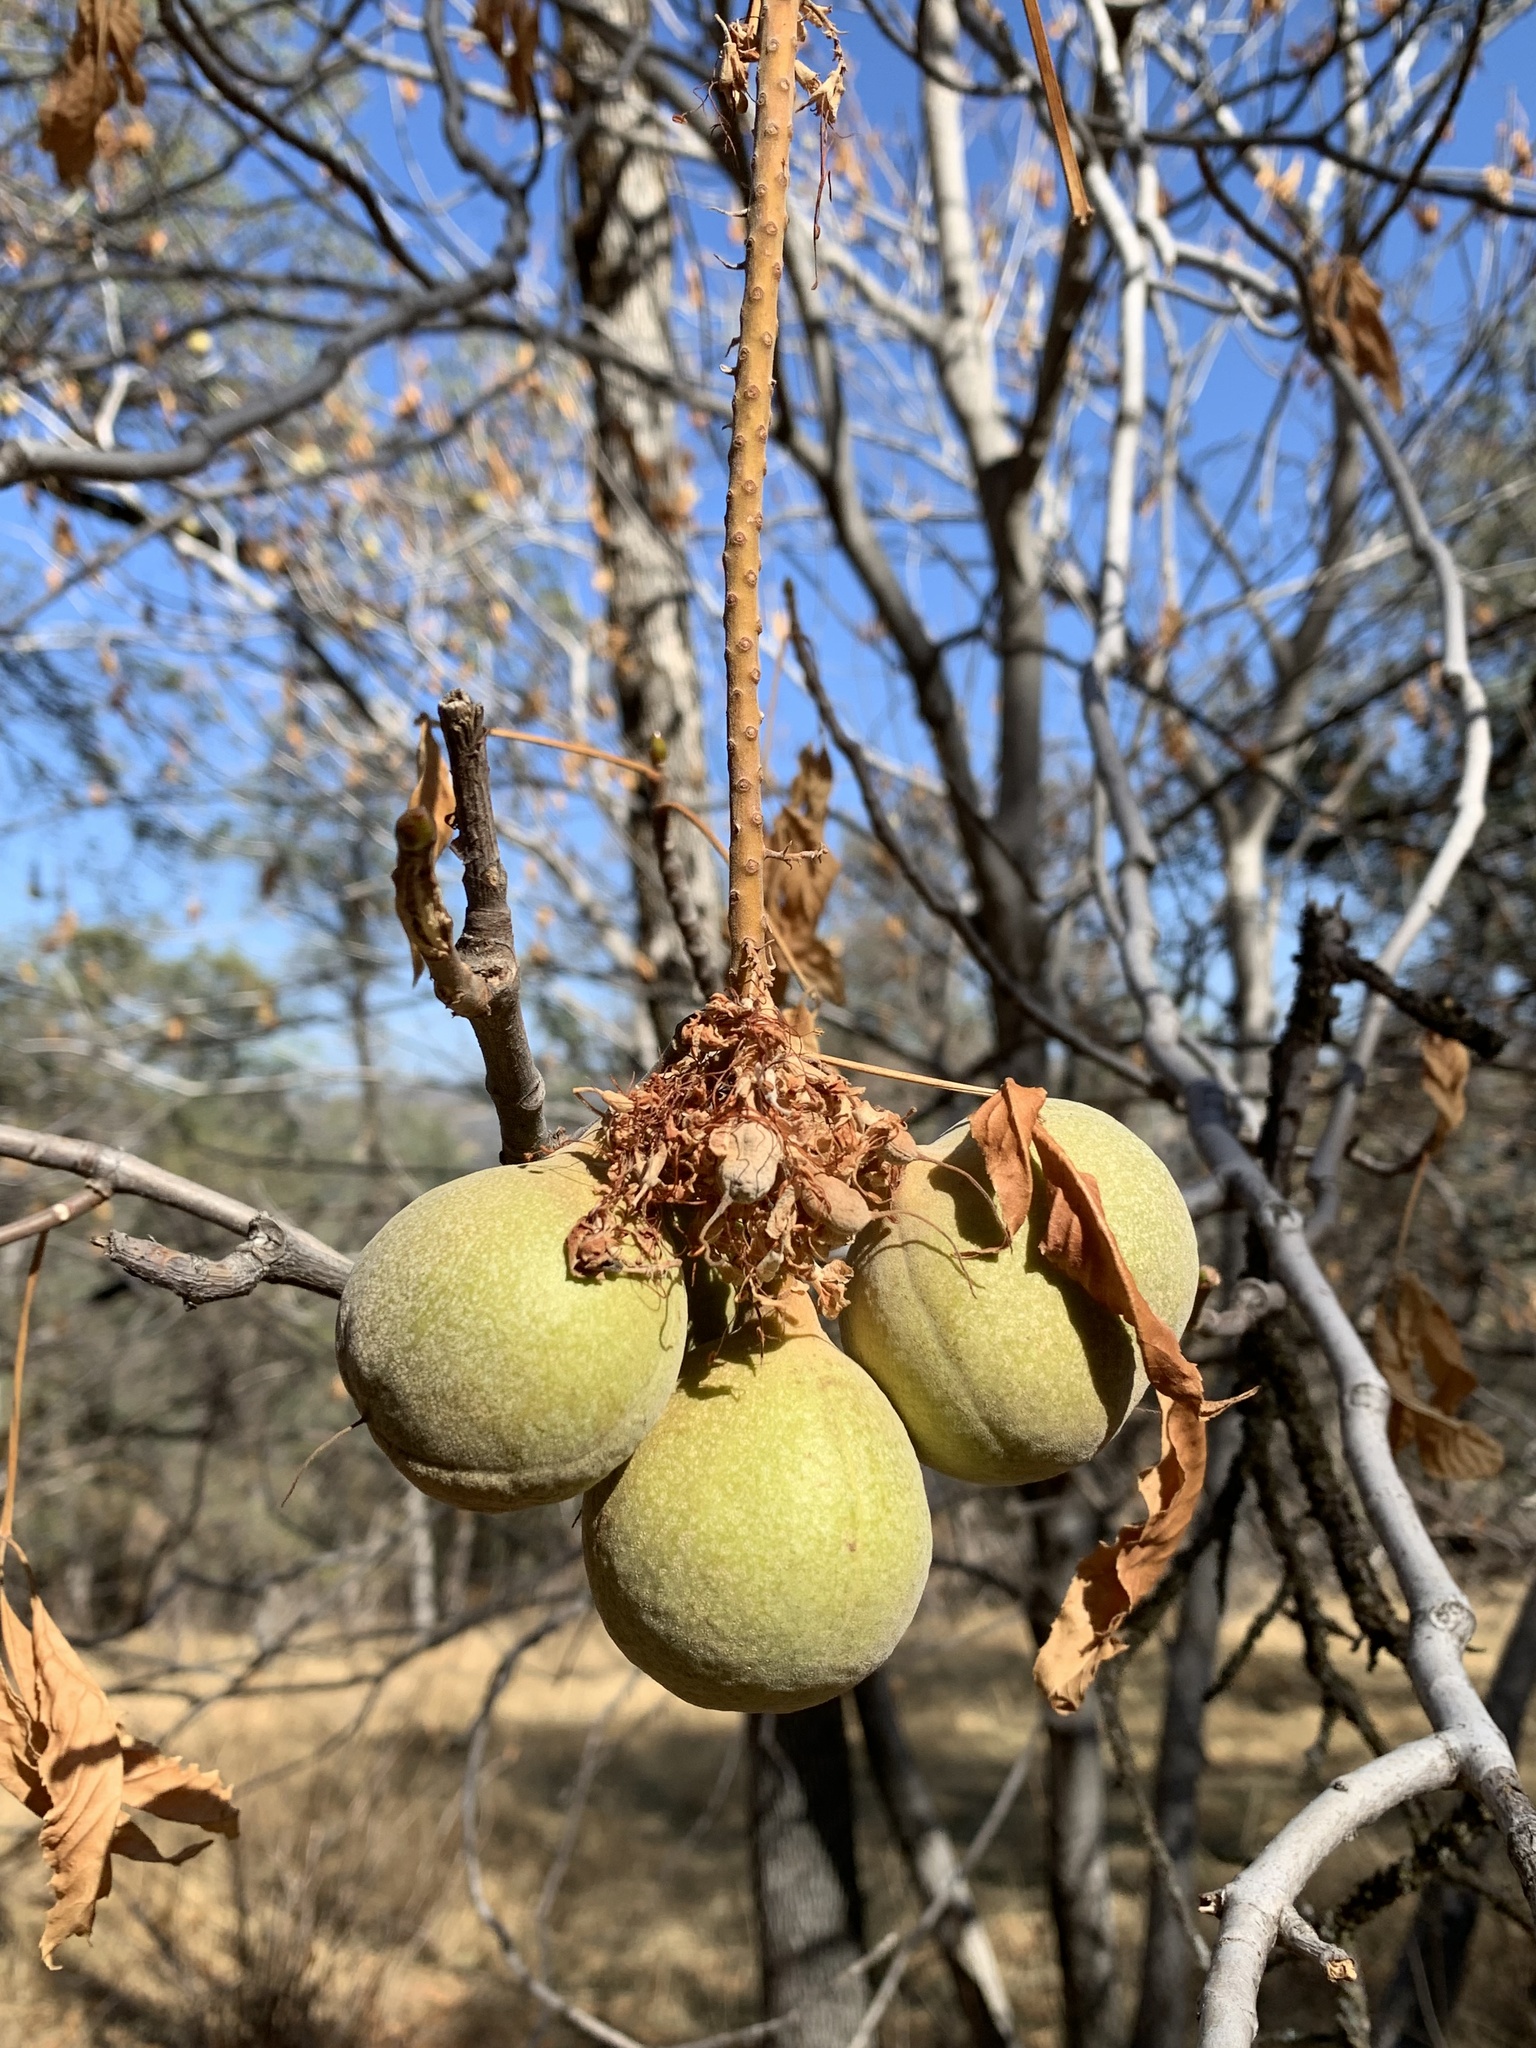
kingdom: Plantae
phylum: Tracheophyta
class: Magnoliopsida
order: Sapindales
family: Sapindaceae
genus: Aesculus
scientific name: Aesculus californica
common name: California buckeye
